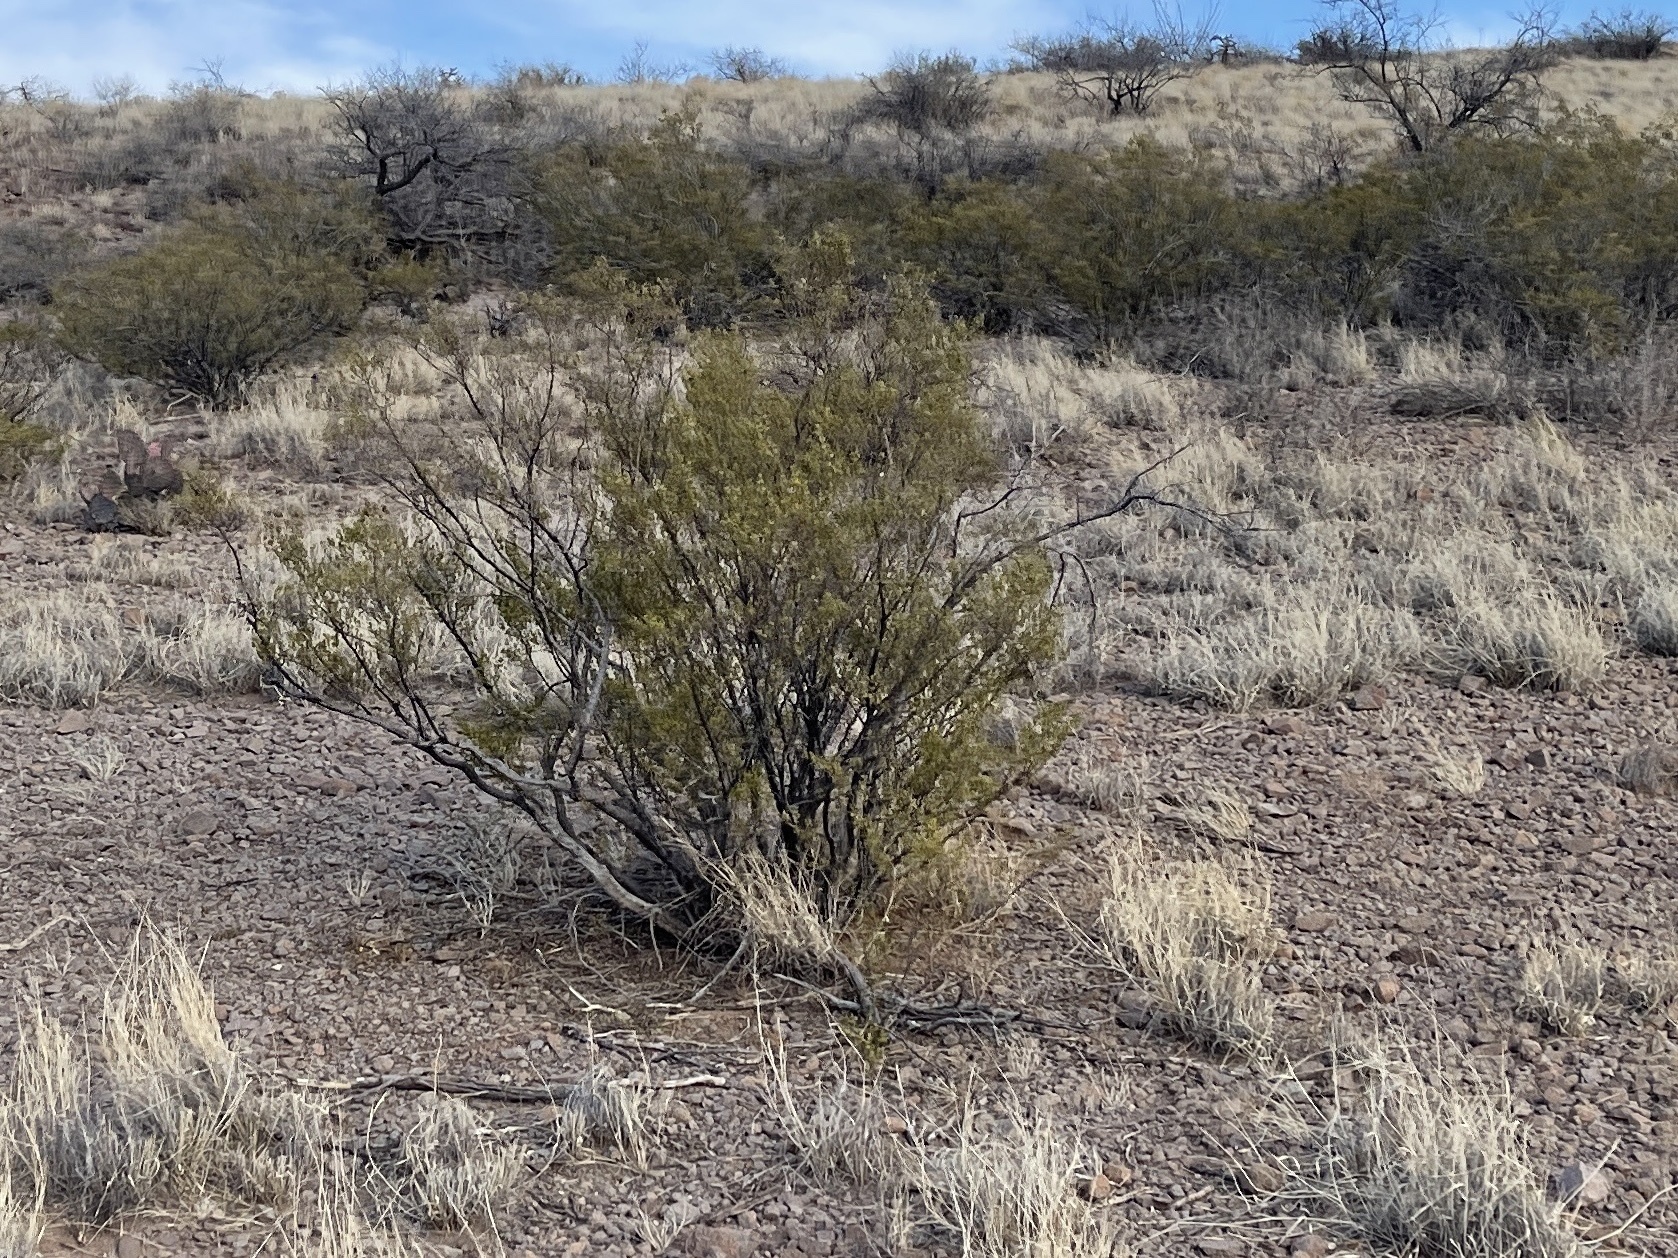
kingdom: Plantae
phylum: Tracheophyta
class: Magnoliopsida
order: Zygophyllales
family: Zygophyllaceae
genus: Larrea
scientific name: Larrea tridentata
